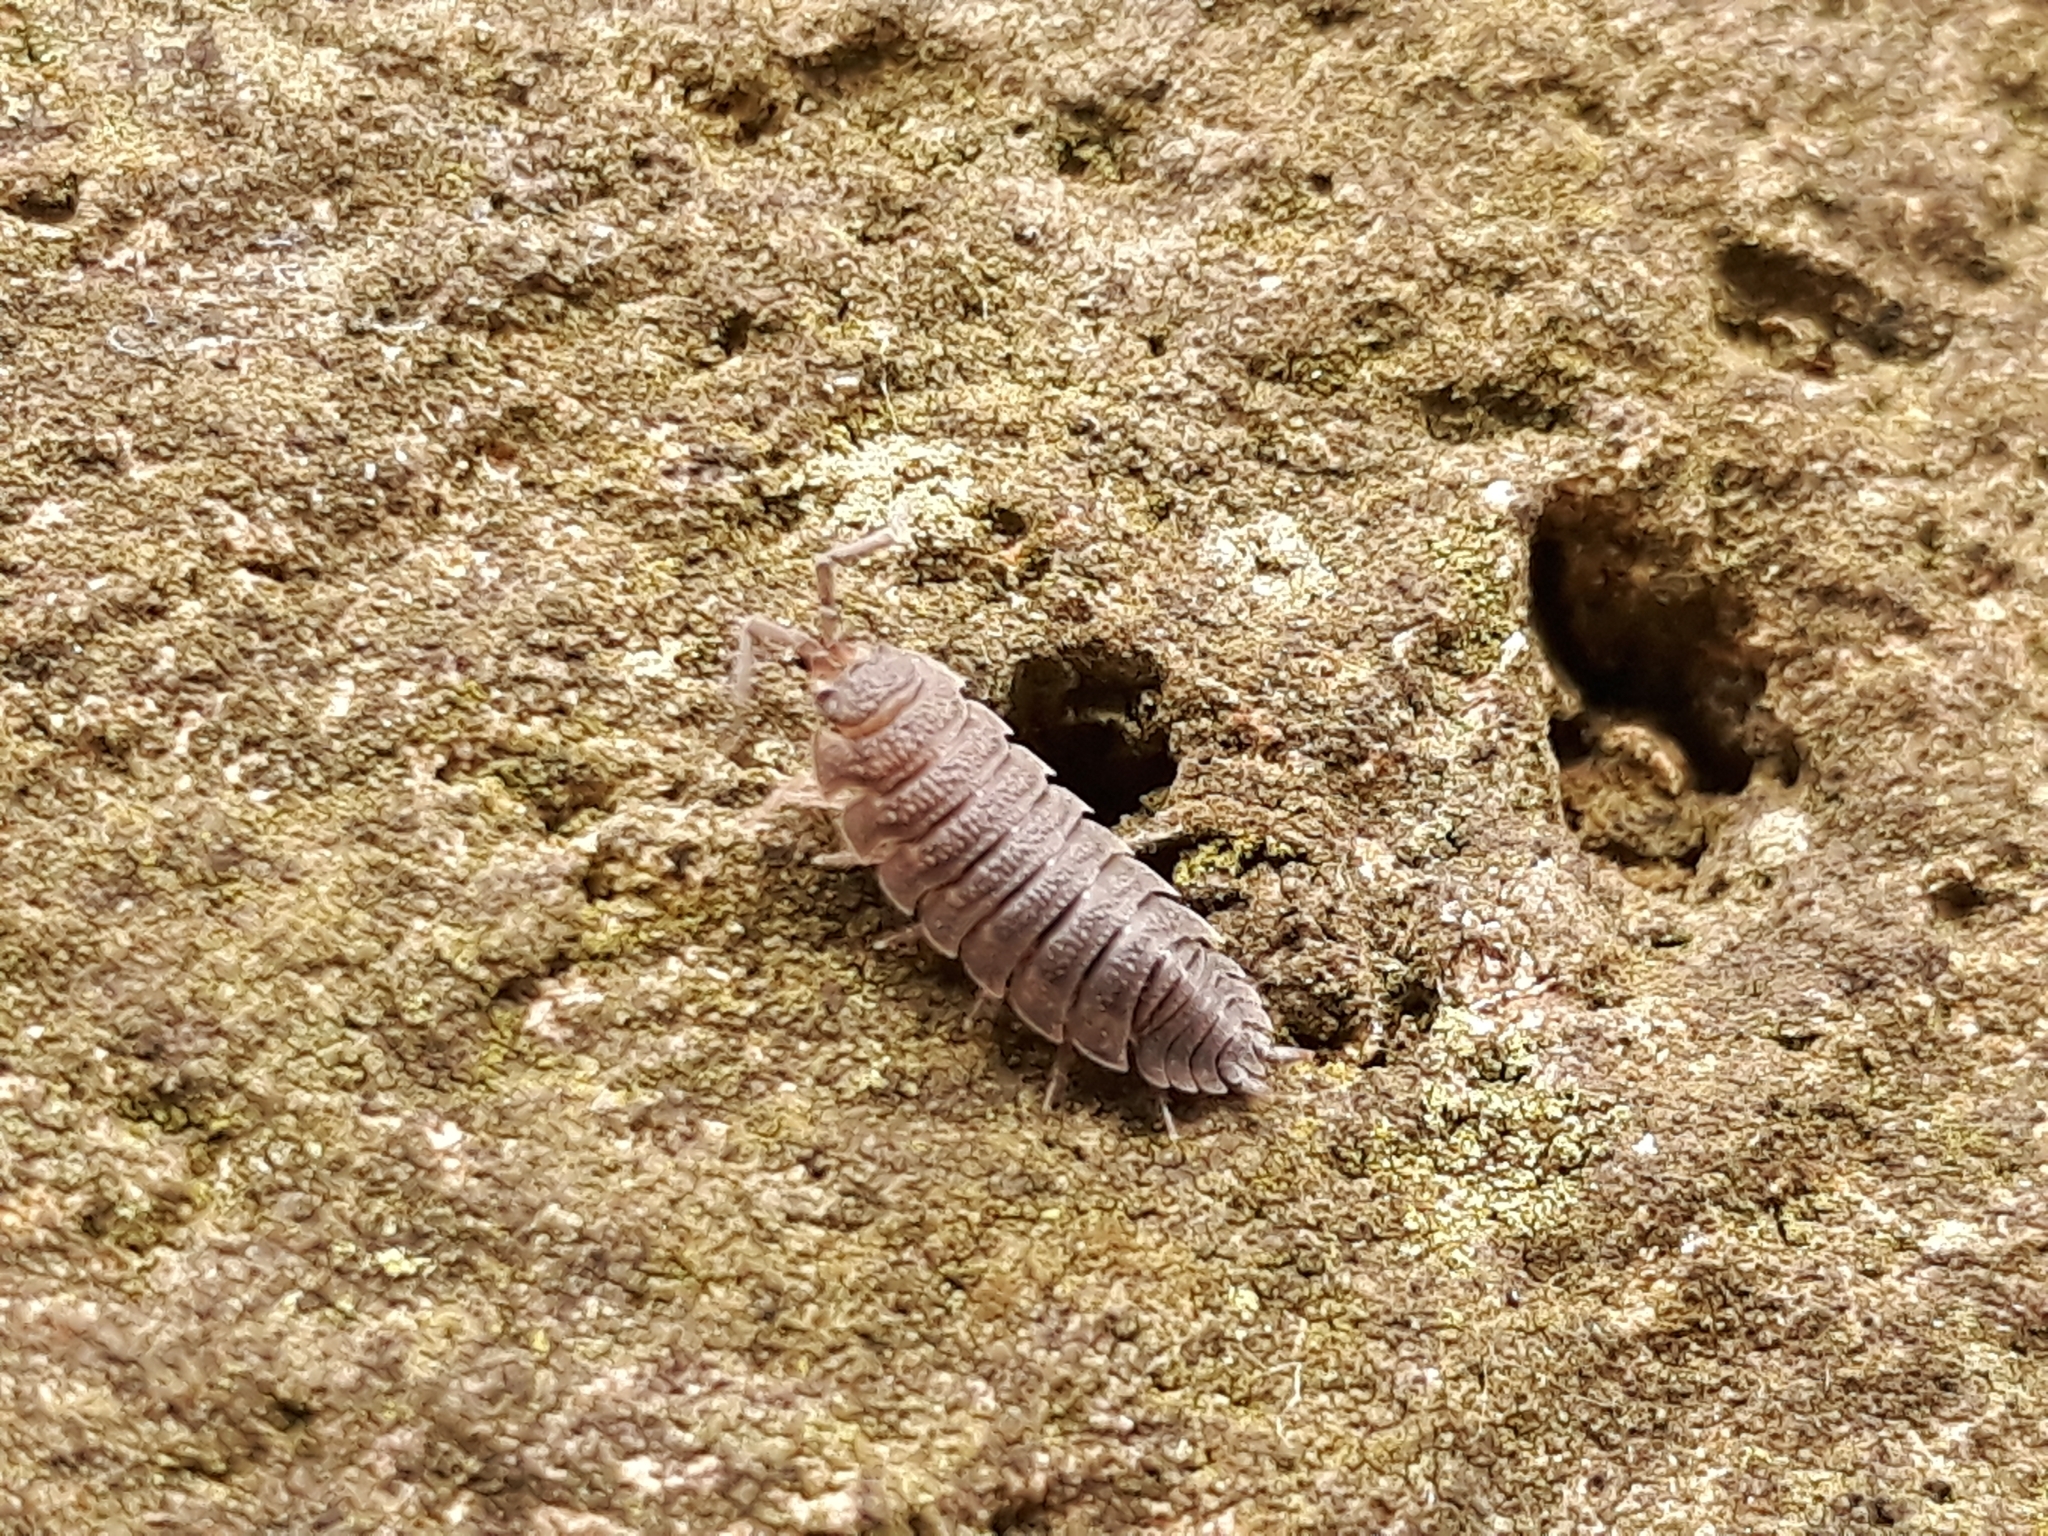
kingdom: Animalia
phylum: Arthropoda
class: Malacostraca
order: Isopoda
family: Porcellionidae
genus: Porcellio
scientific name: Porcellio scaber
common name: Common rough woodlouse
